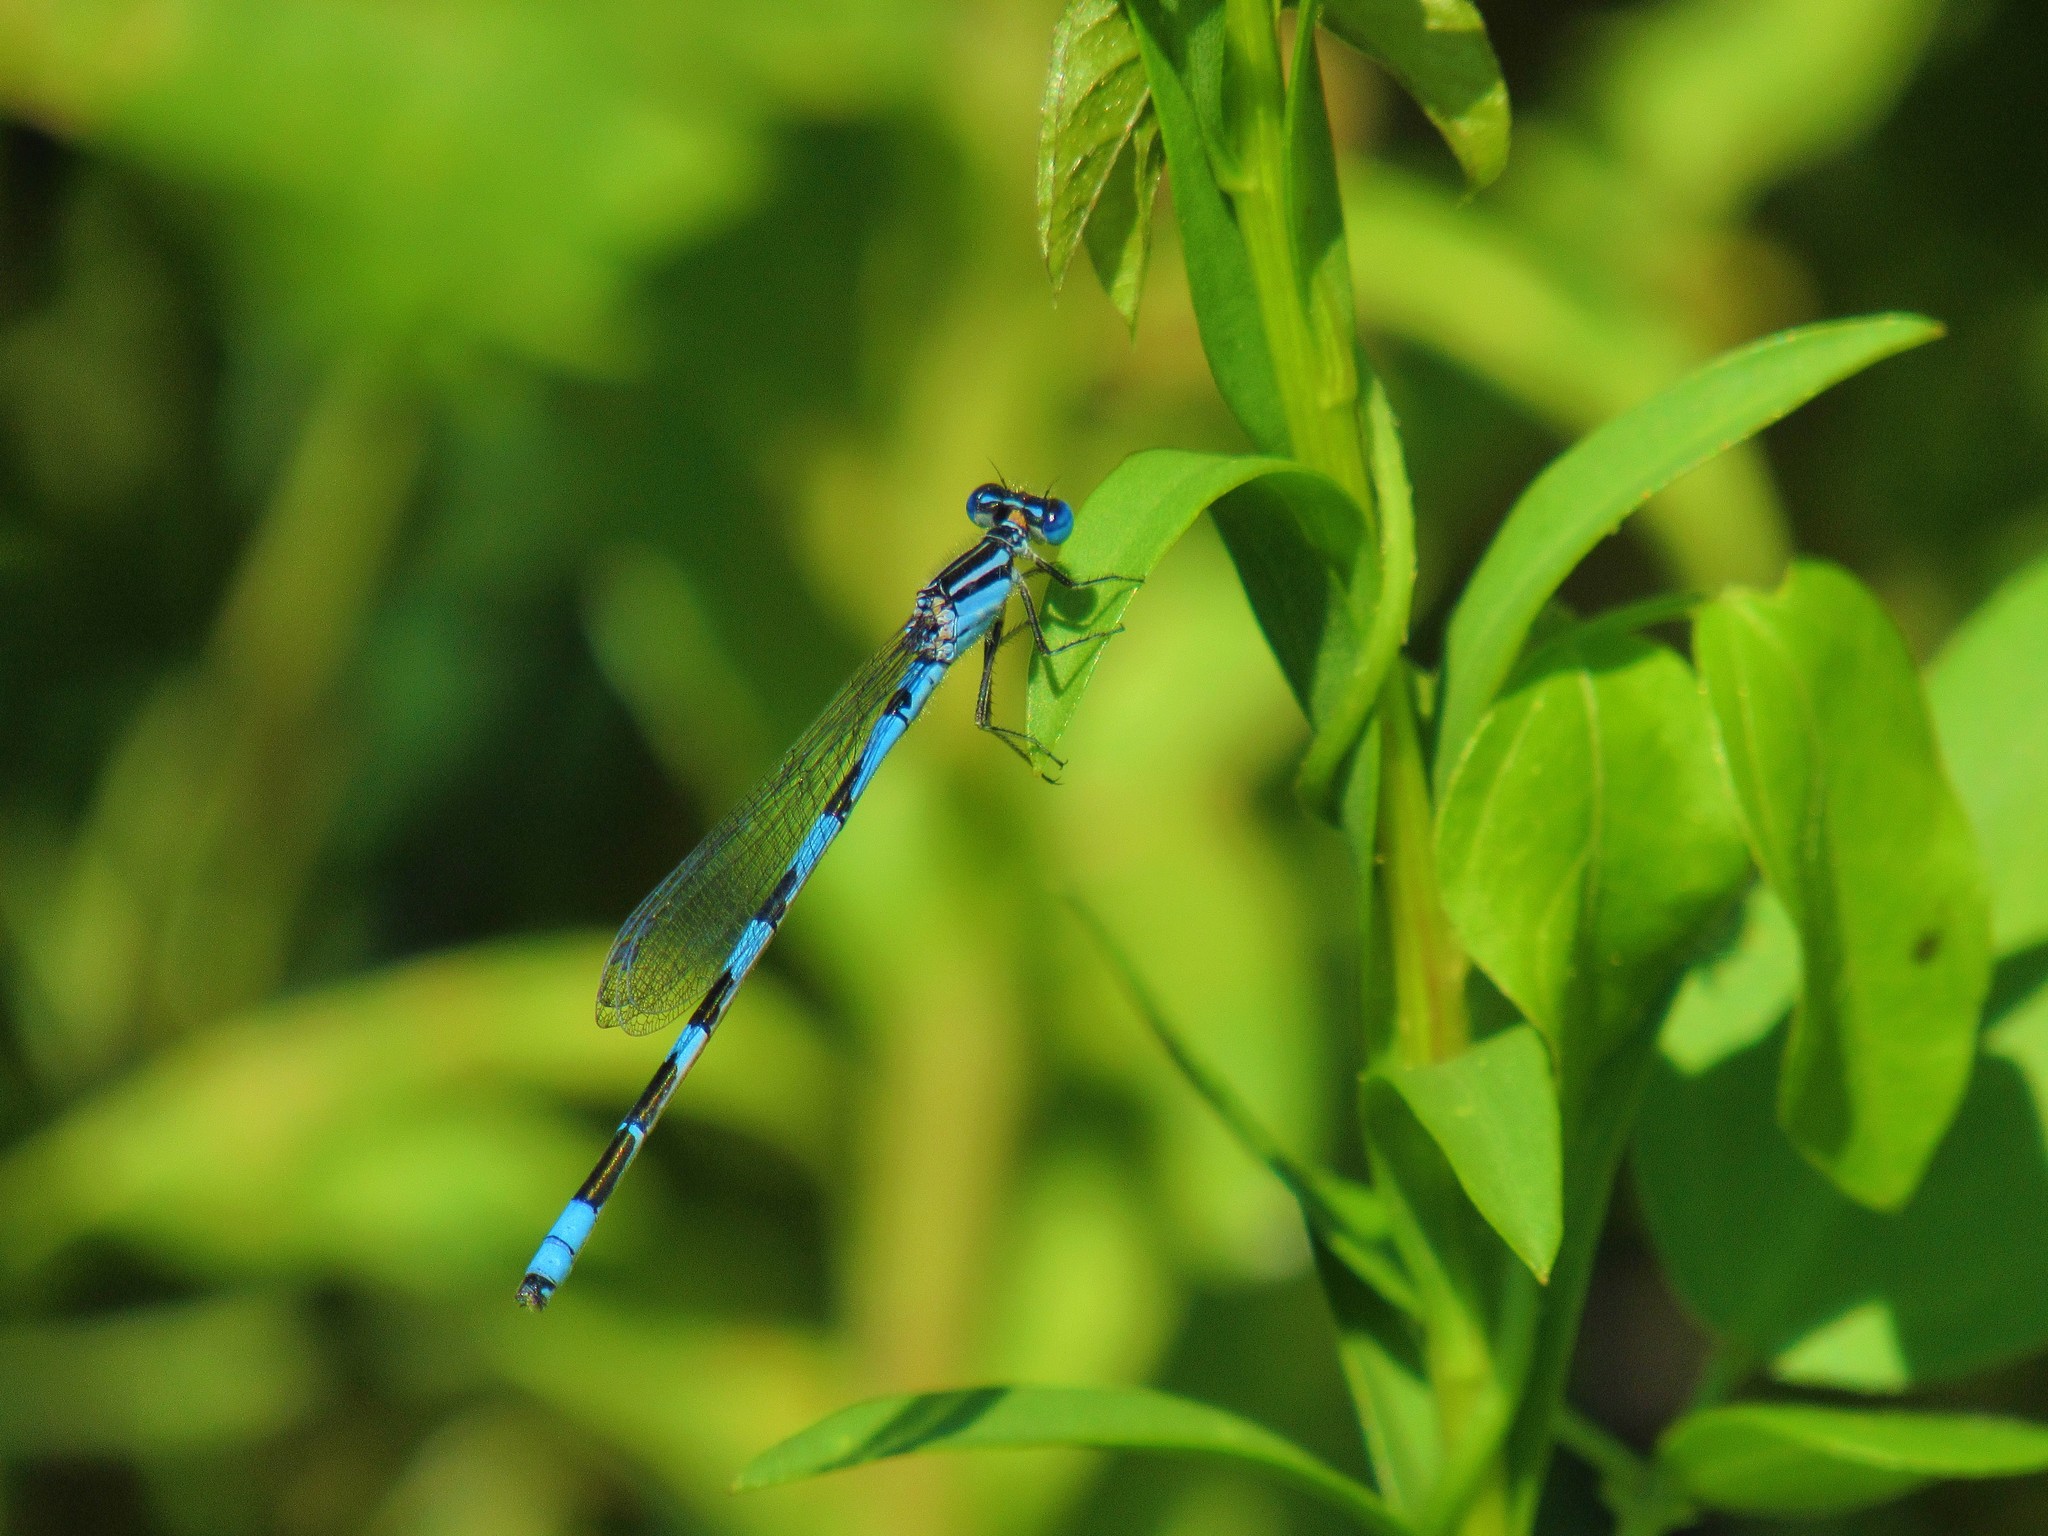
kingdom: Animalia
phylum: Arthropoda
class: Insecta
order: Odonata
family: Coenagrionidae
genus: Enallagma
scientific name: Enallagma durum
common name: Big bluet
